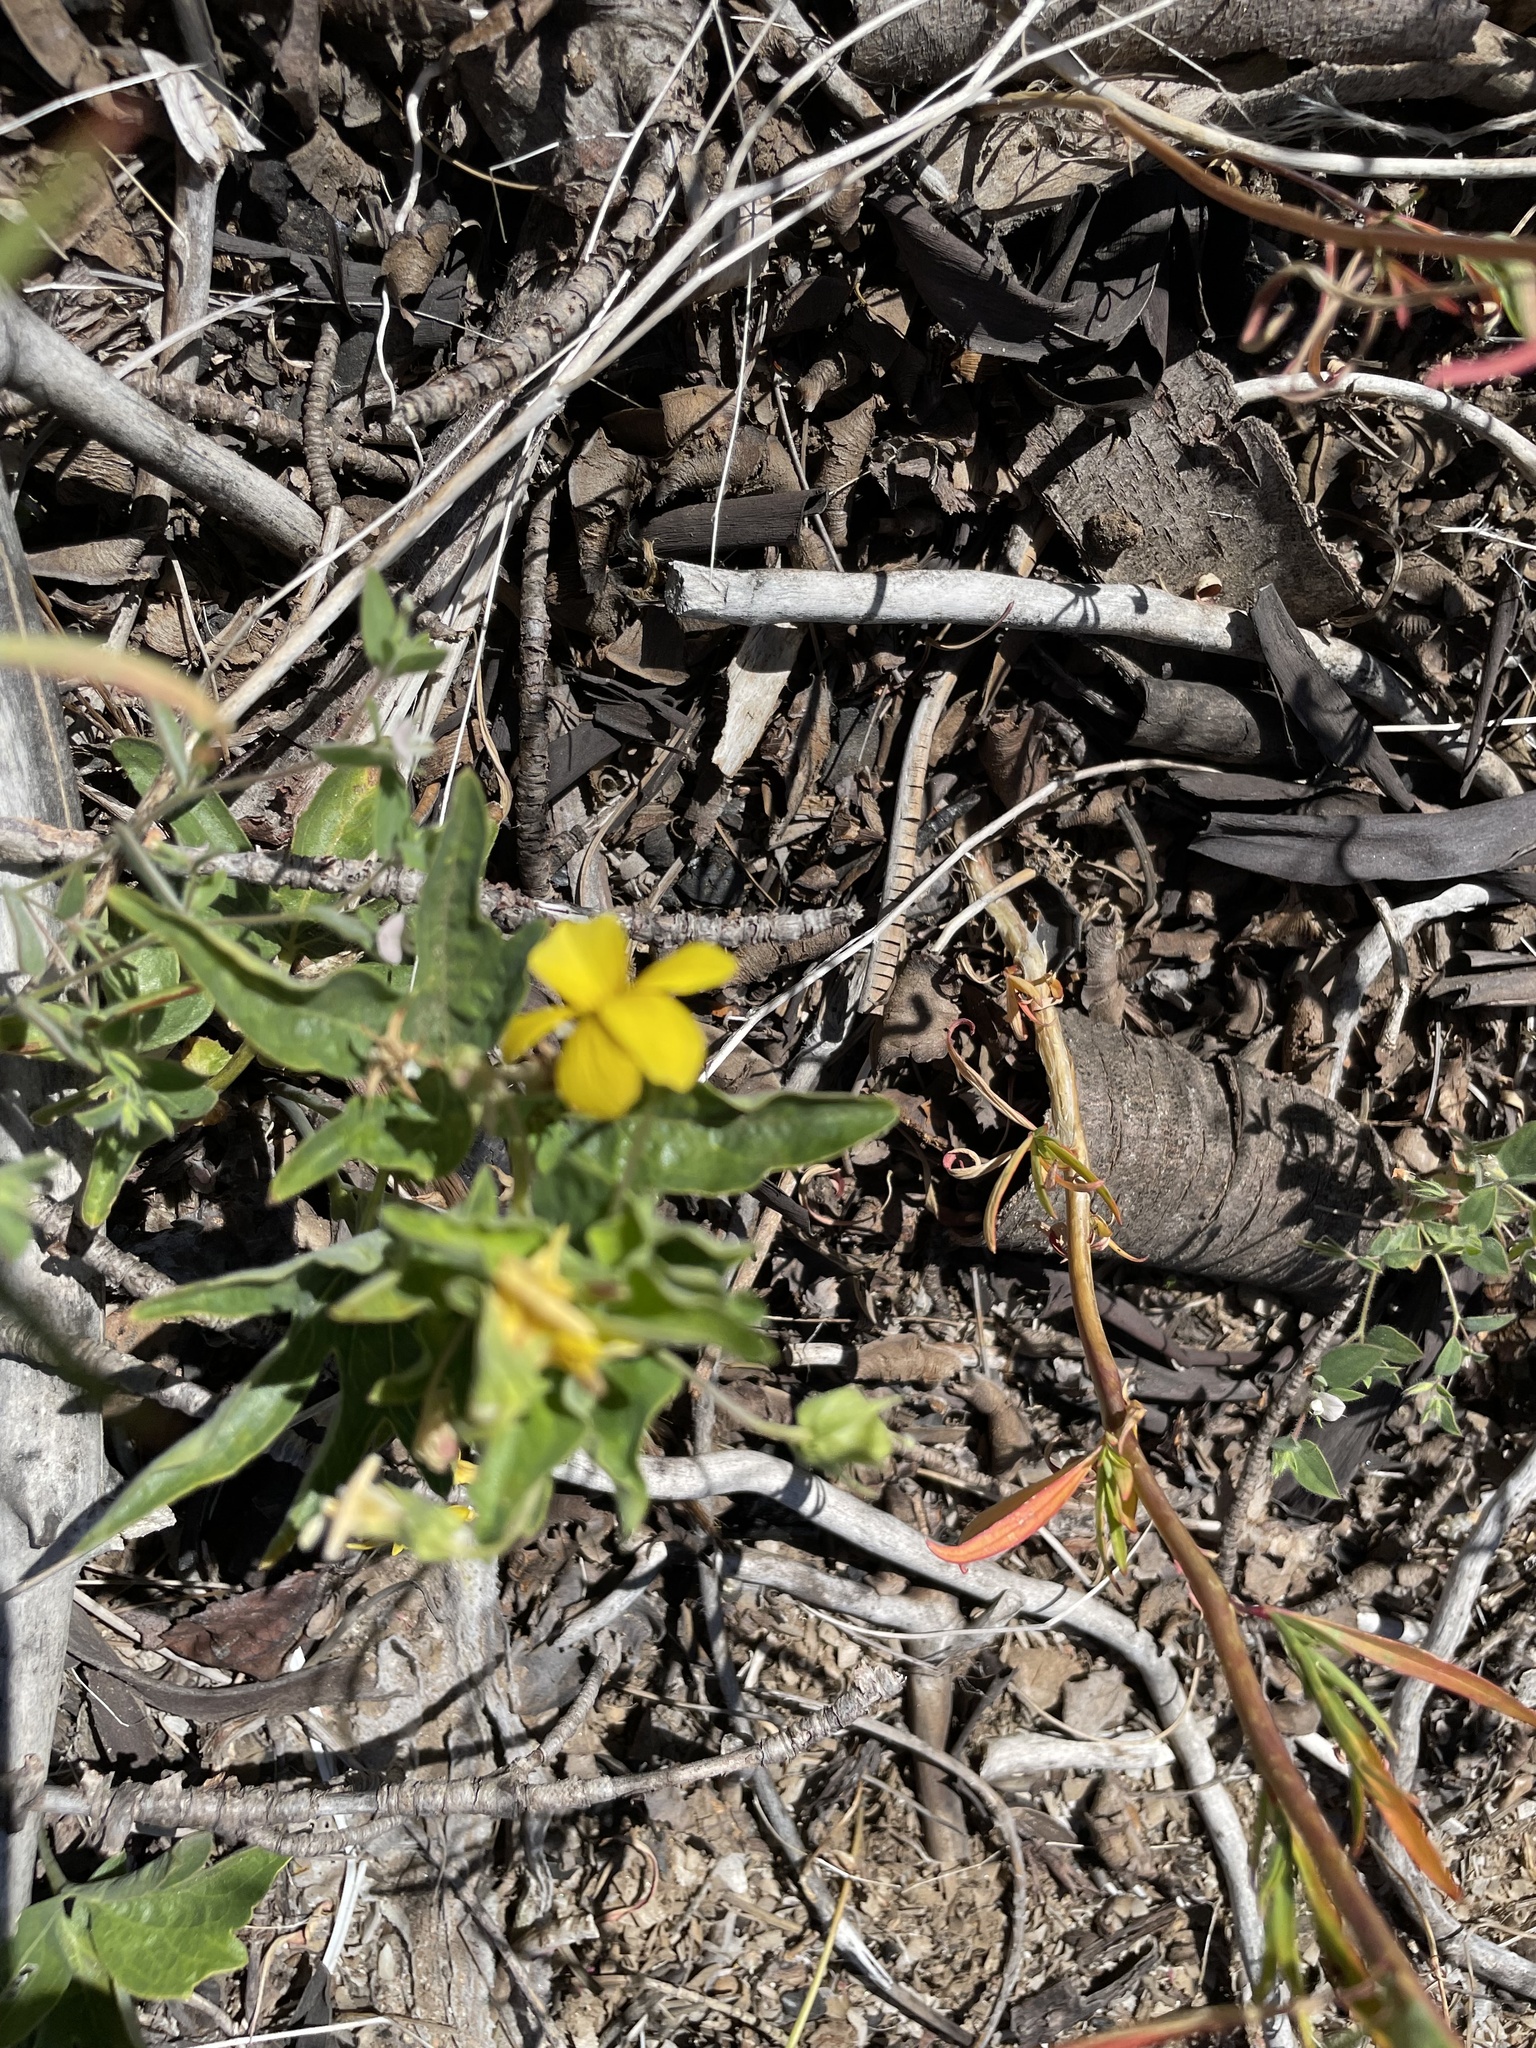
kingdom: Plantae
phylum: Tracheophyta
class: Magnoliopsida
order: Malpighiales
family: Violaceae
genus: Viola
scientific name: Viola lobata
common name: Pine violet
